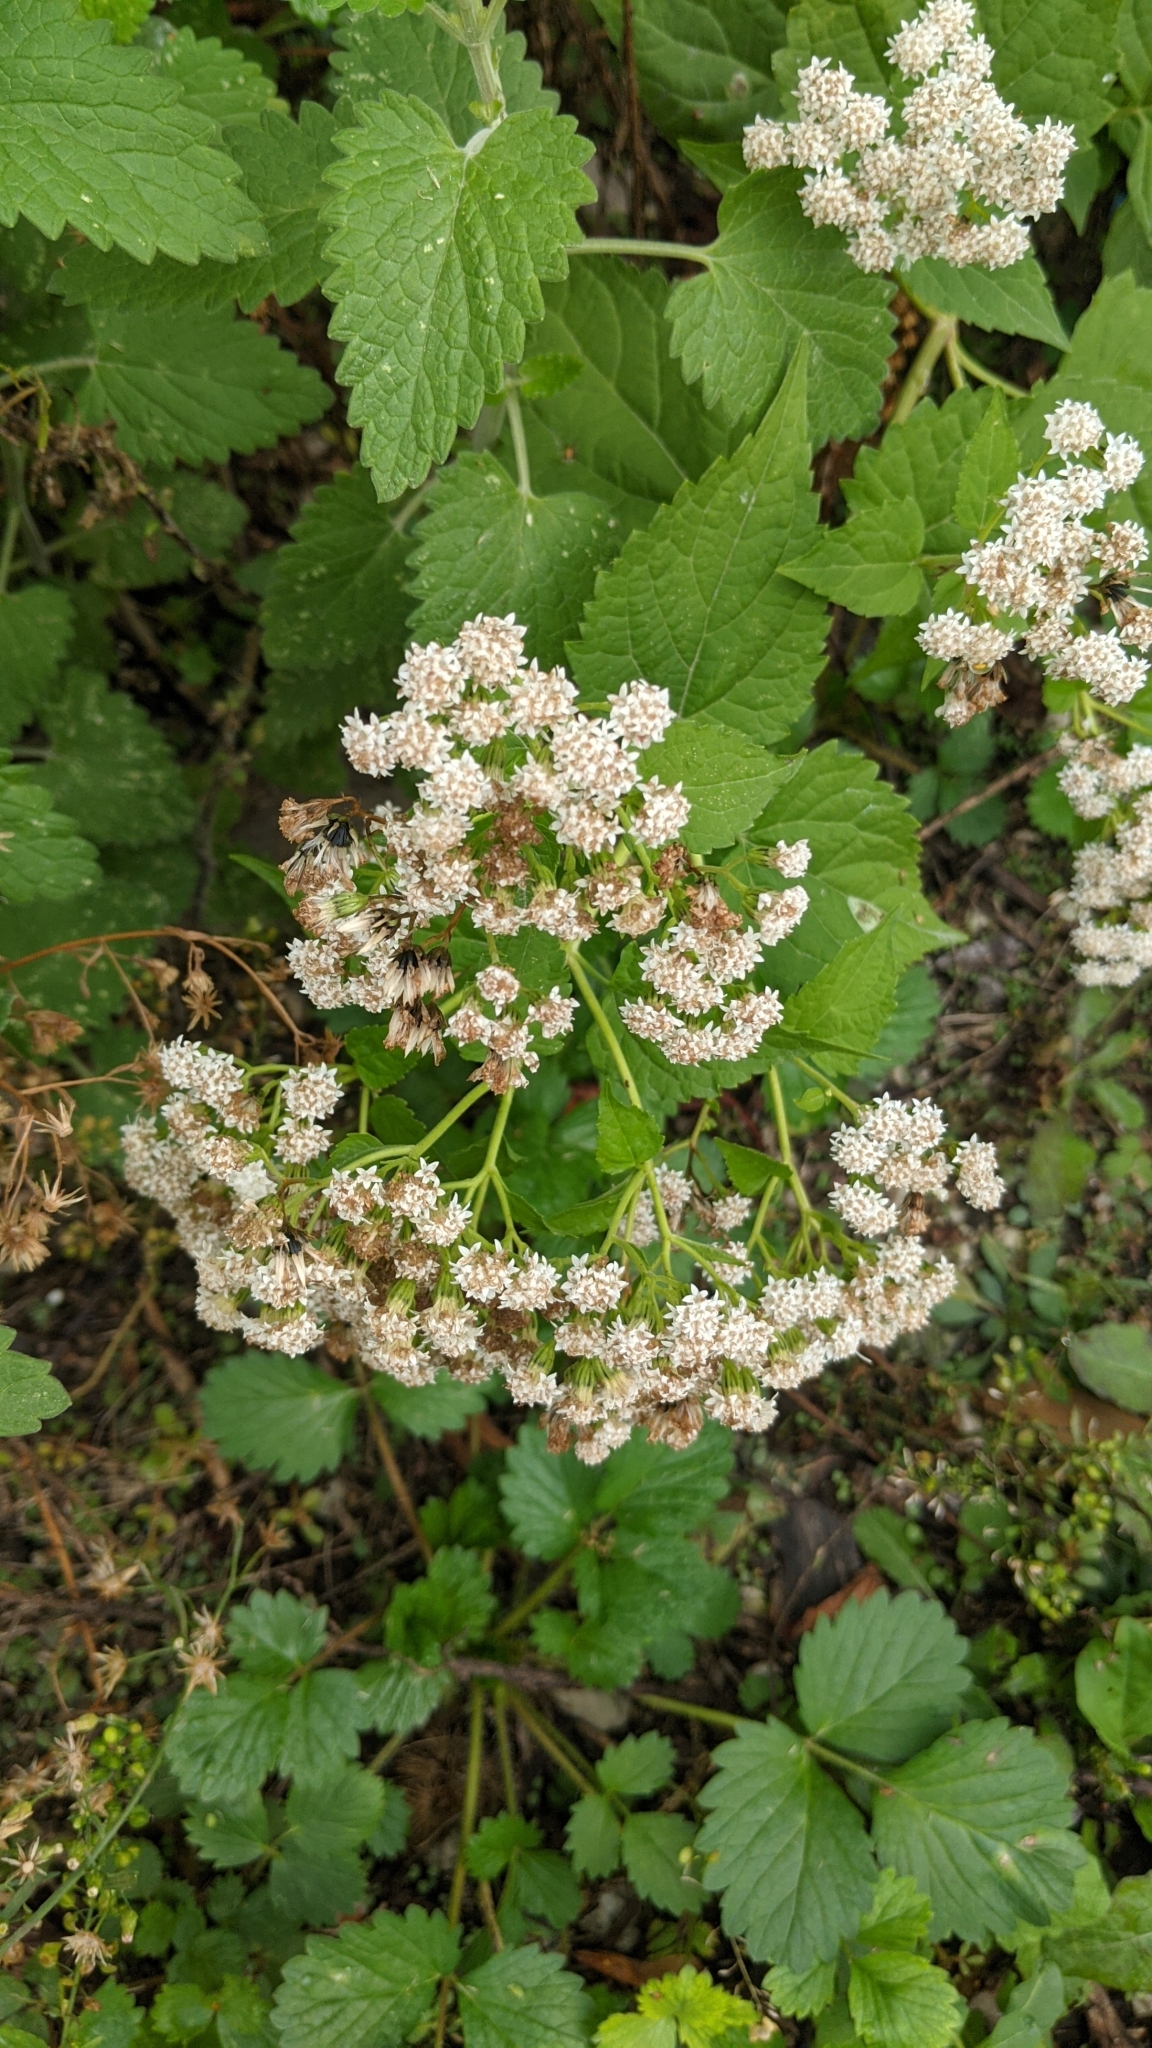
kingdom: Plantae
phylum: Tracheophyta
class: Magnoliopsida
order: Asterales
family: Asteraceae
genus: Ageratina
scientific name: Ageratina altissima
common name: White snakeroot
